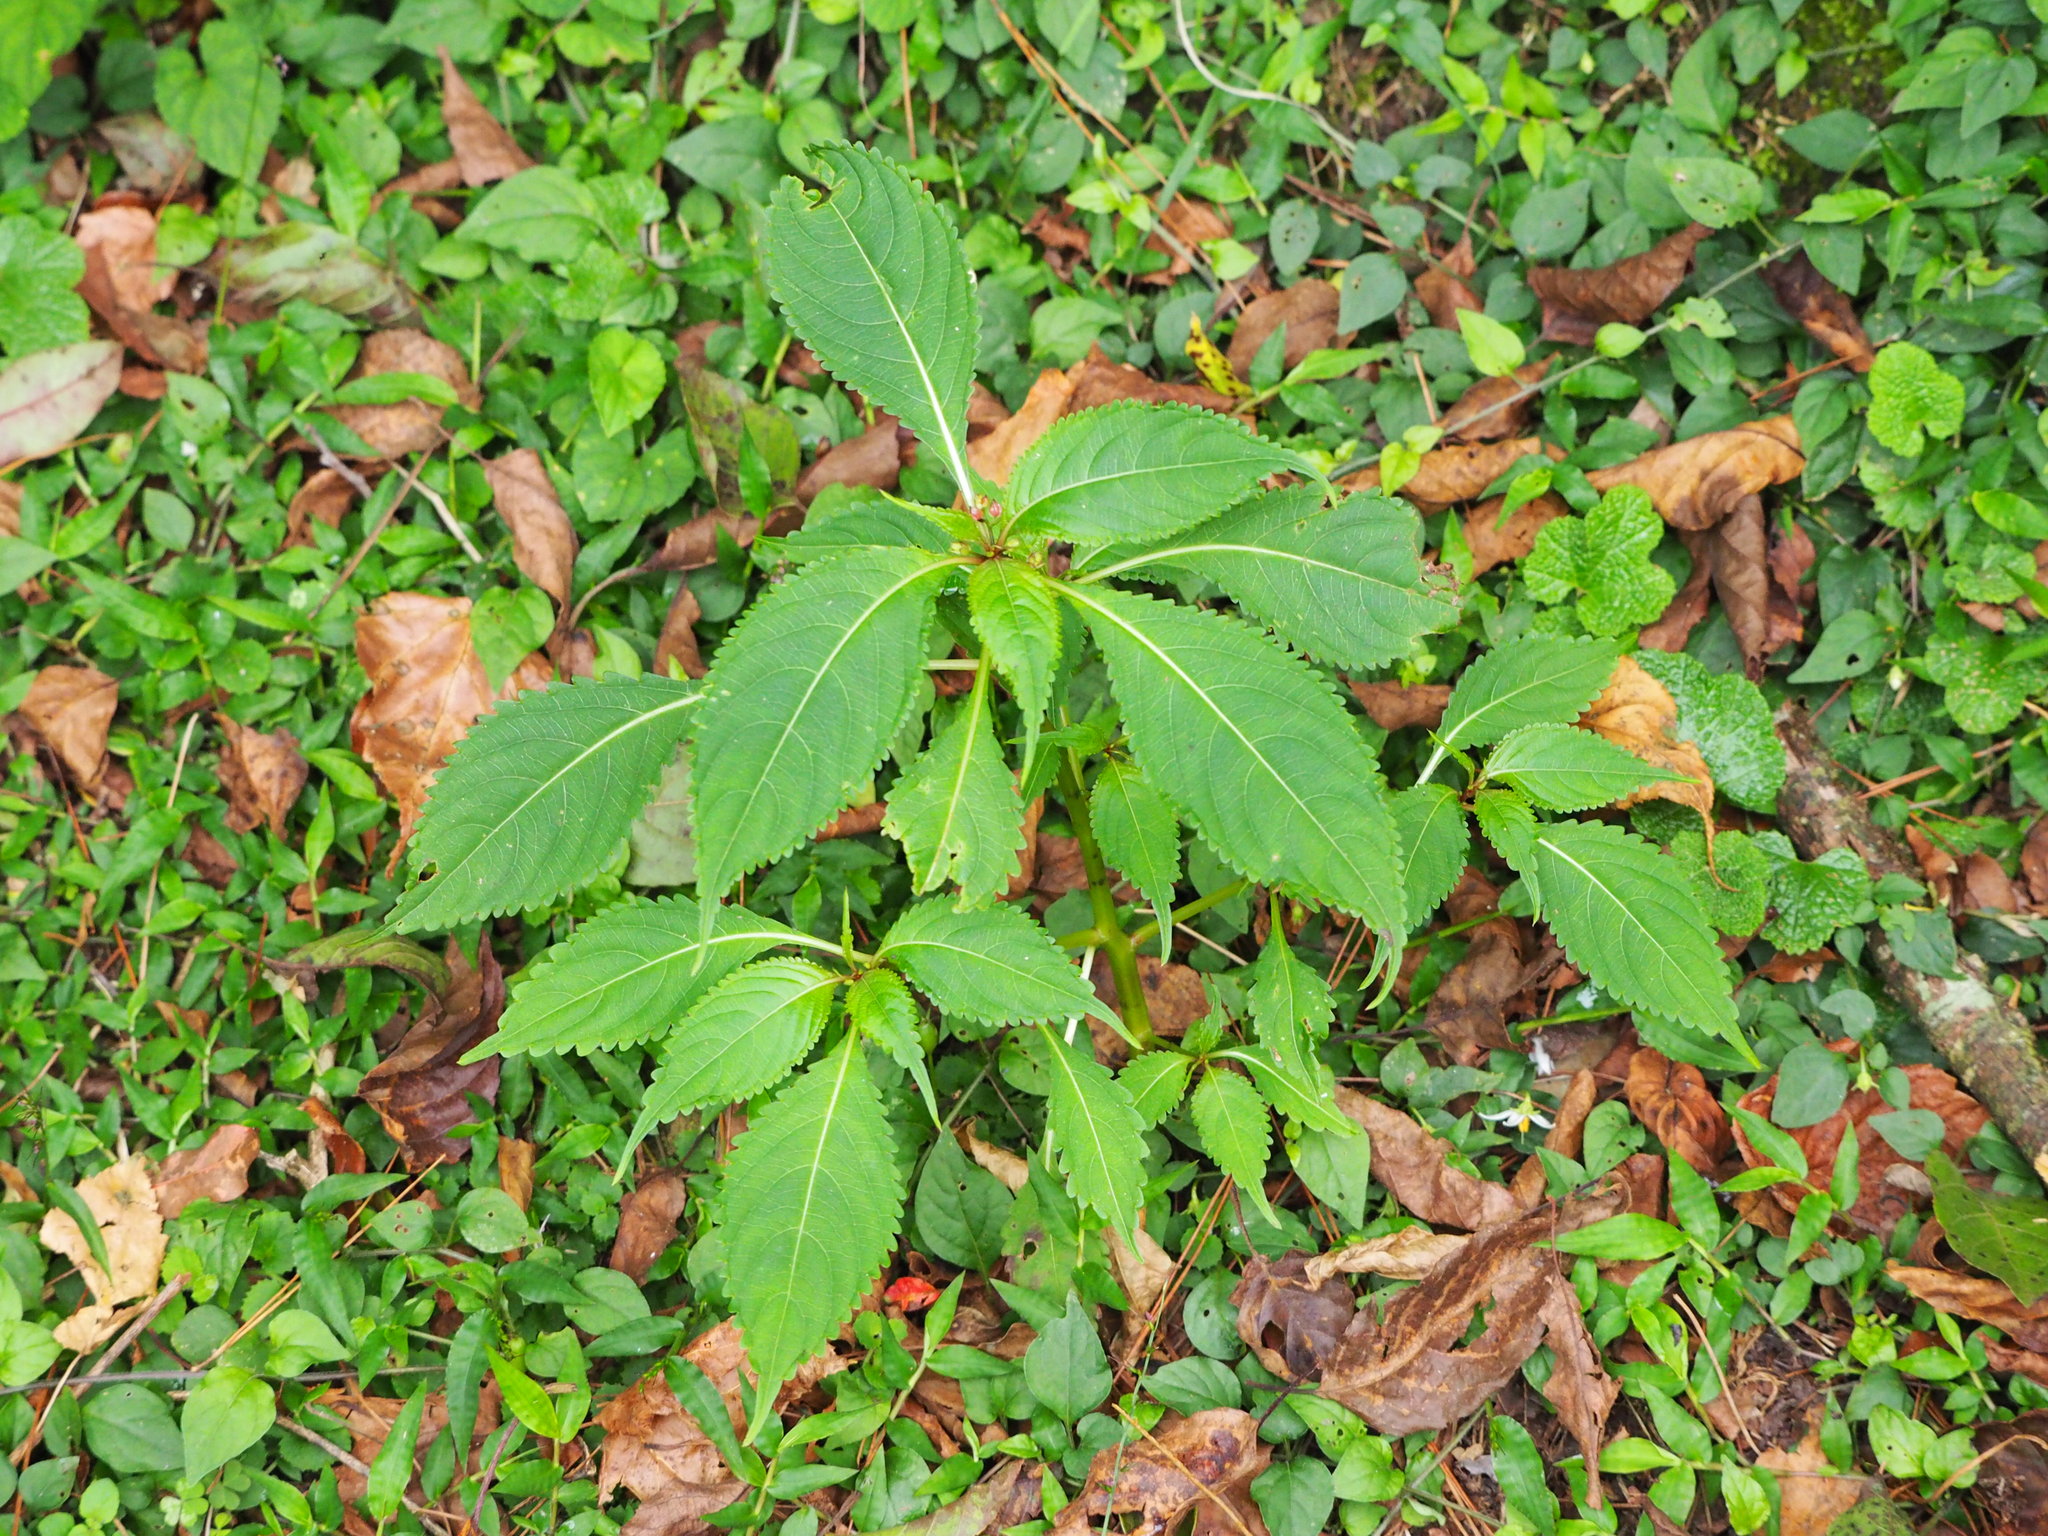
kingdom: Plantae
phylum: Tracheophyta
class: Magnoliopsida
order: Ericales
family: Balsaminaceae
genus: Impatiens
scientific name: Impatiens devolii
